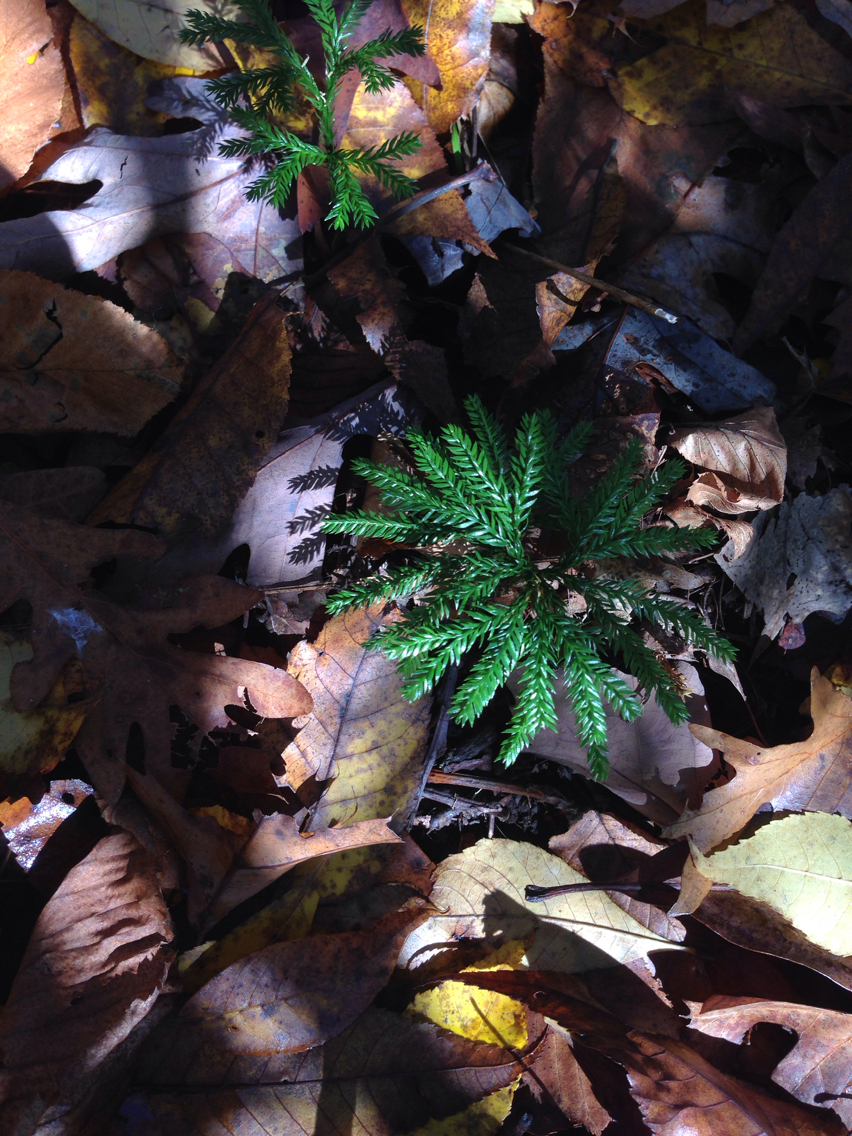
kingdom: Plantae
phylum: Tracheophyta
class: Lycopodiopsida
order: Lycopodiales
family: Lycopodiaceae
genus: Dendrolycopodium
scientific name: Dendrolycopodium obscurum
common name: Common ground-pine
